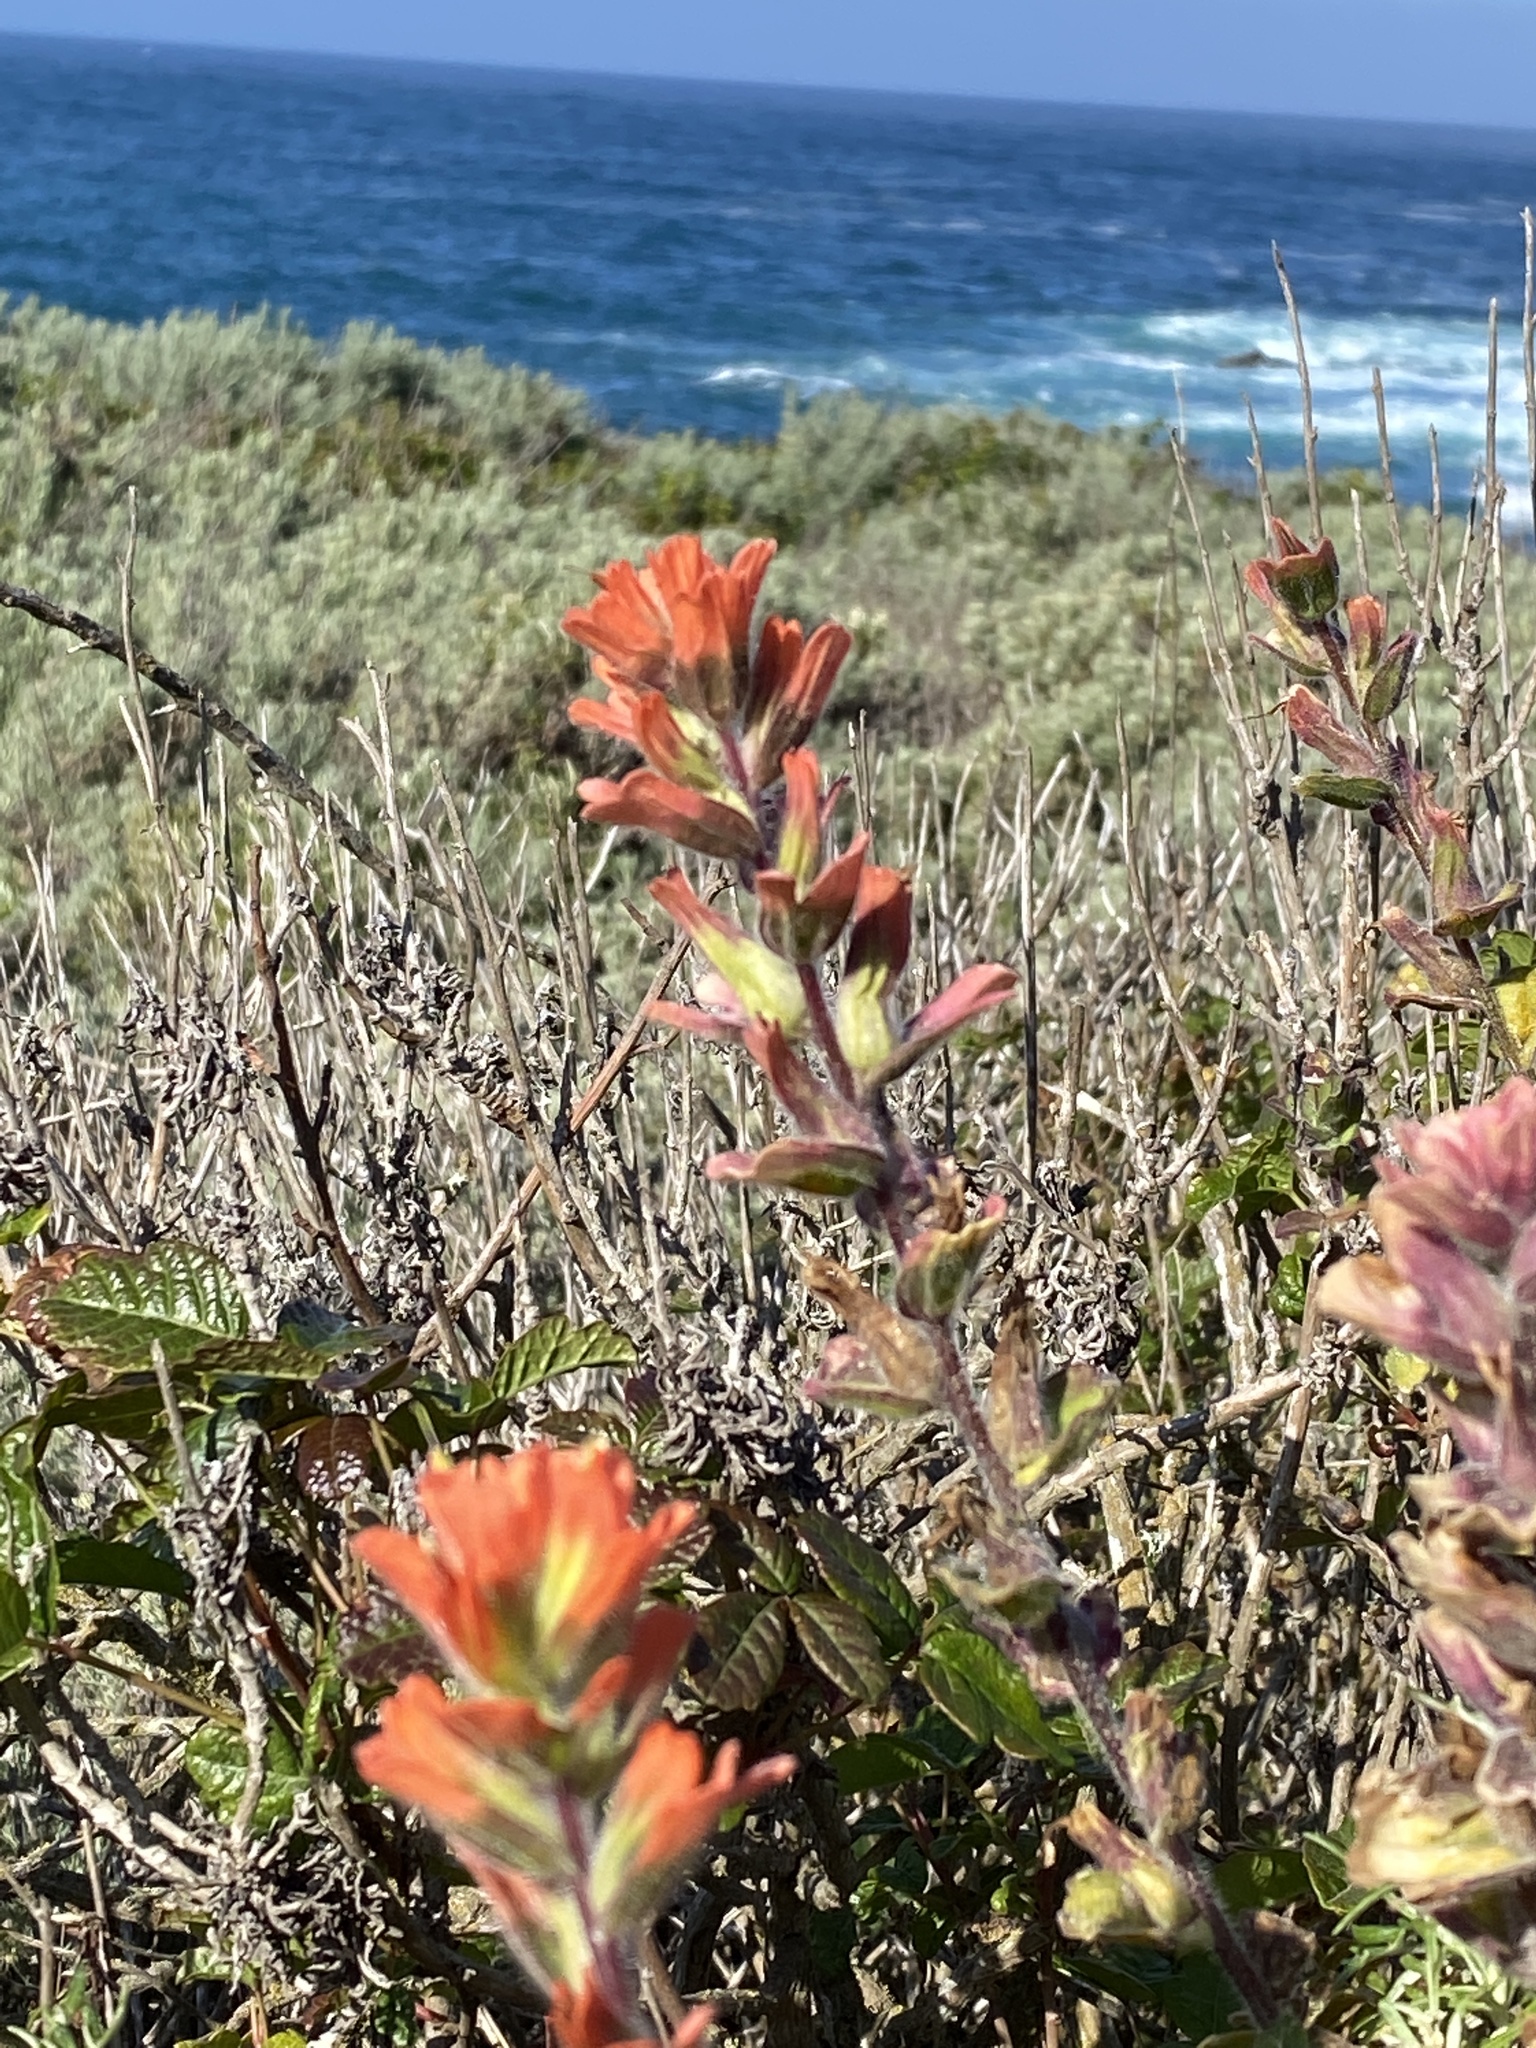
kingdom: Plantae
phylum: Tracheophyta
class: Magnoliopsida
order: Lamiales
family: Orobanchaceae
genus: Castilleja
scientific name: Castilleja latifolia
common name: Monterey indian paintbrush
